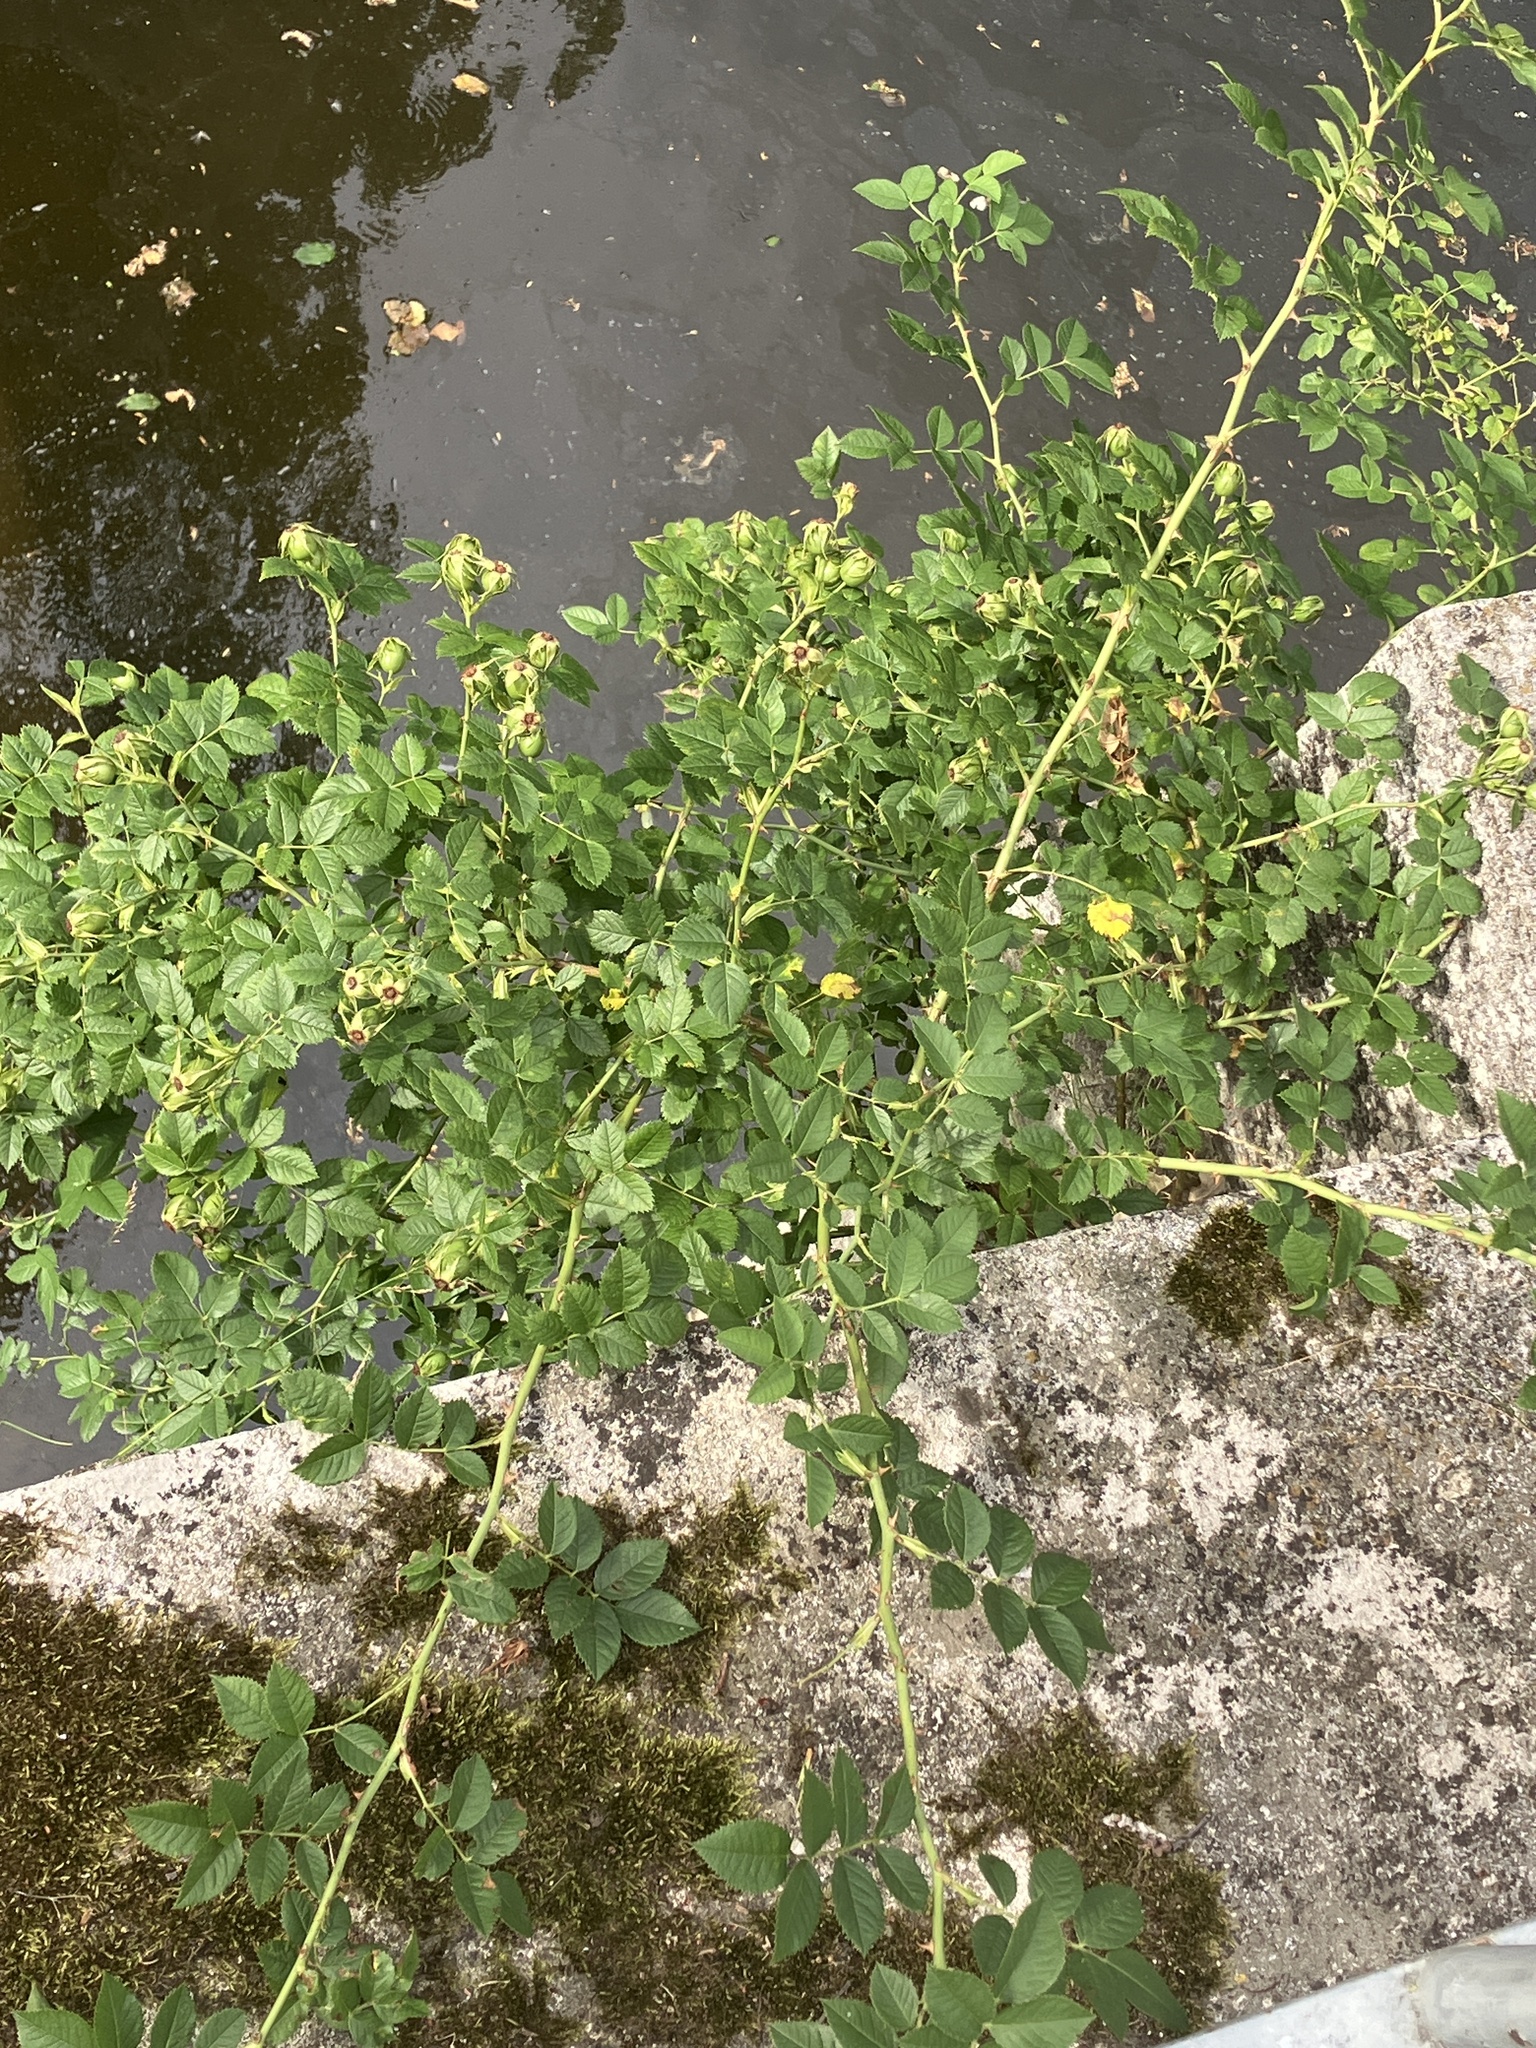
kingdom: Plantae
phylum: Tracheophyta
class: Magnoliopsida
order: Rosales
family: Rosaceae
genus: Rosa
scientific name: Rosa canina
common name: Dog rose
